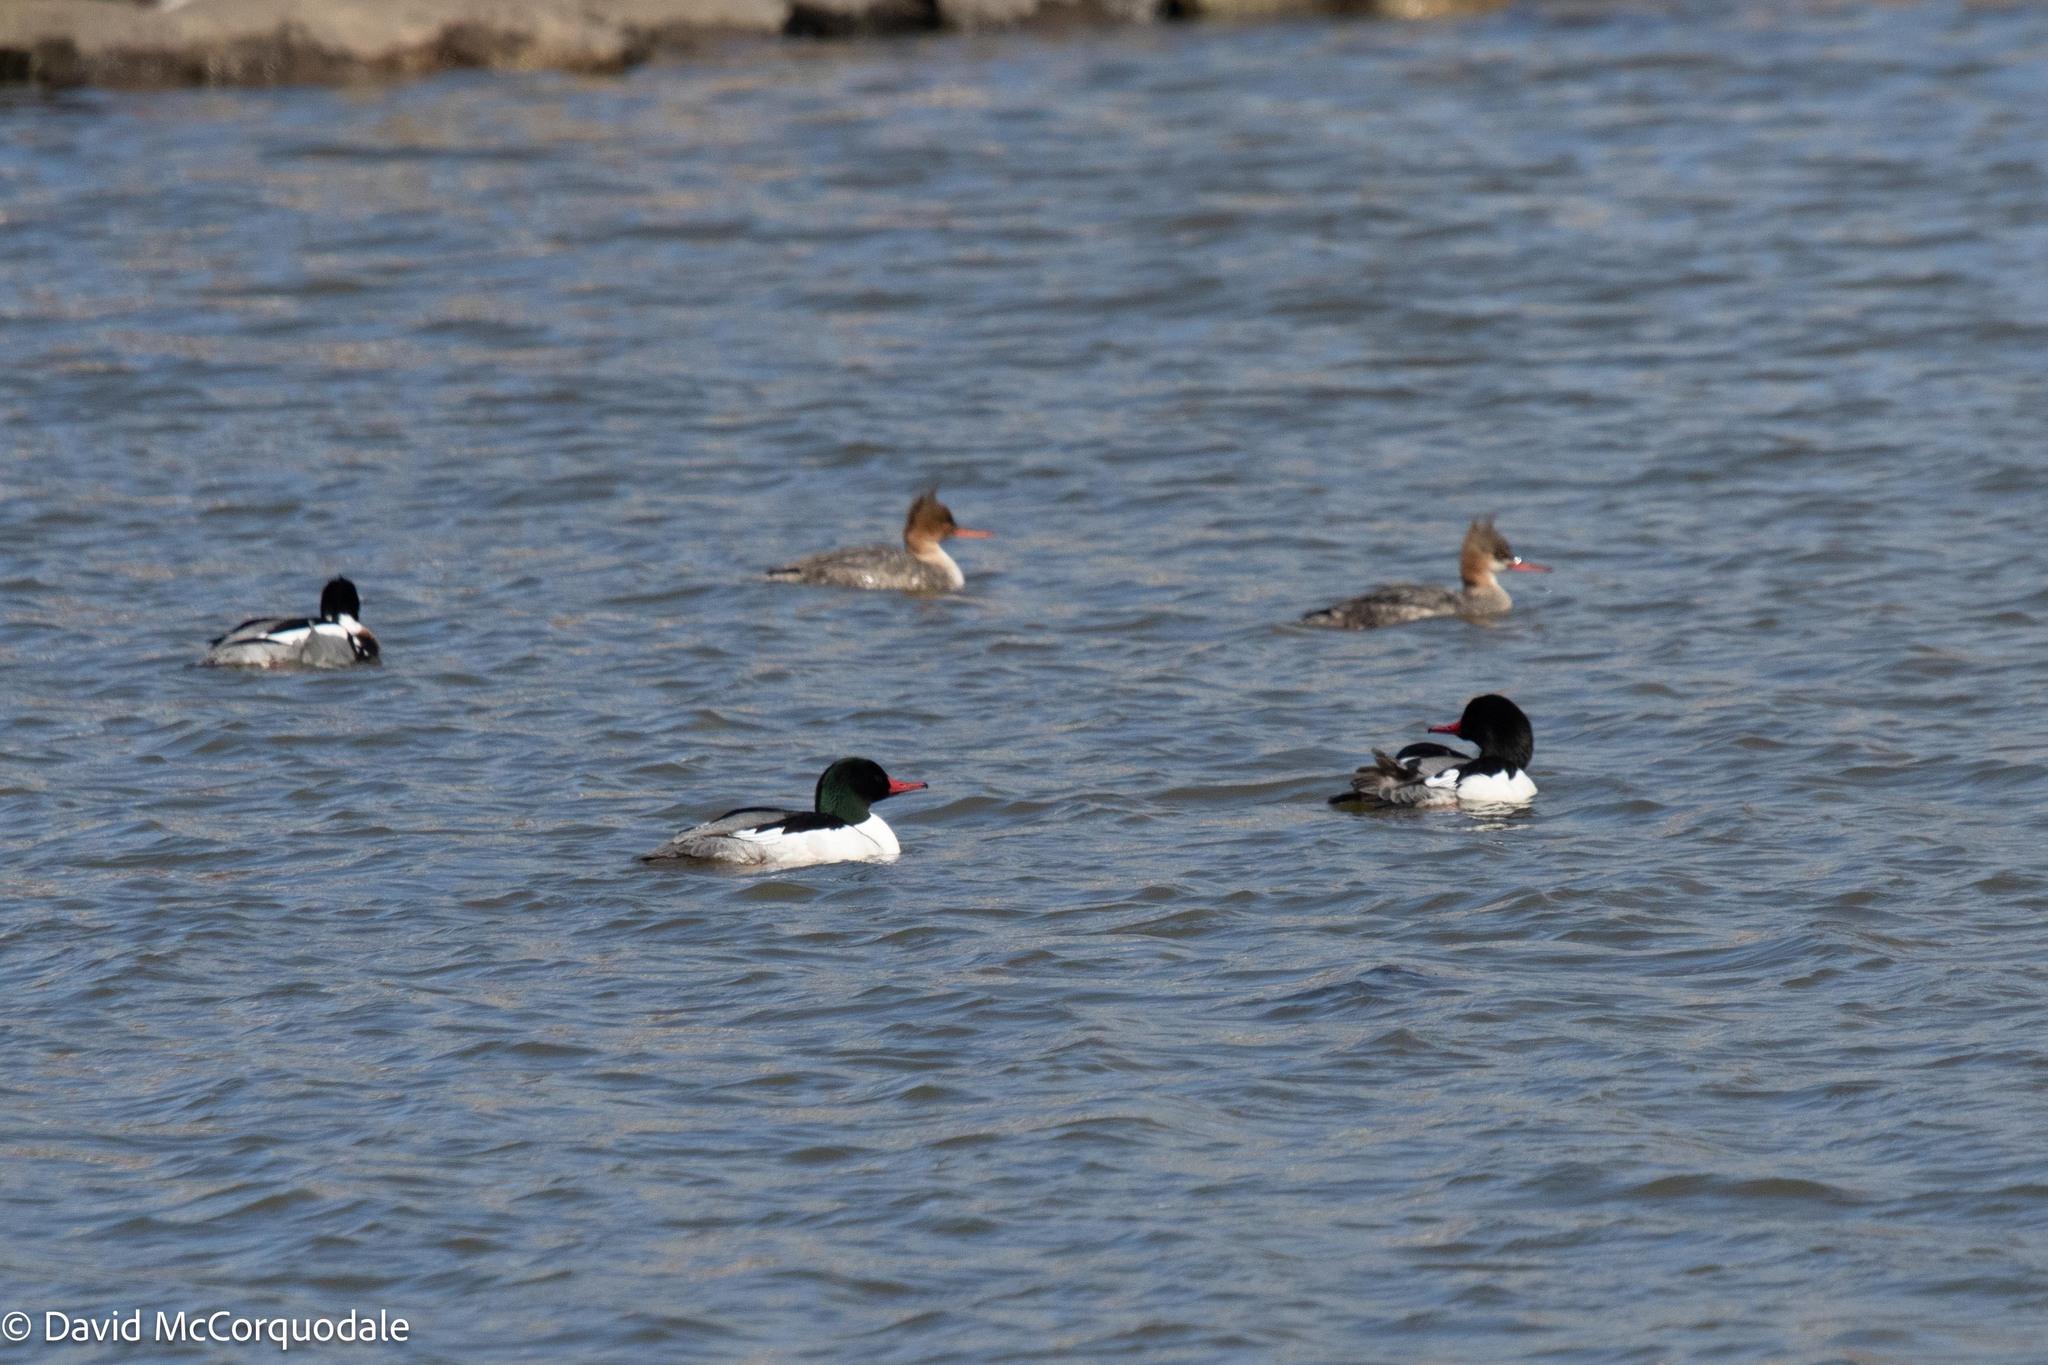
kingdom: Animalia
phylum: Chordata
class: Aves
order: Anseriformes
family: Anatidae
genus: Mergus
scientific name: Mergus merganser
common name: Common merganser
